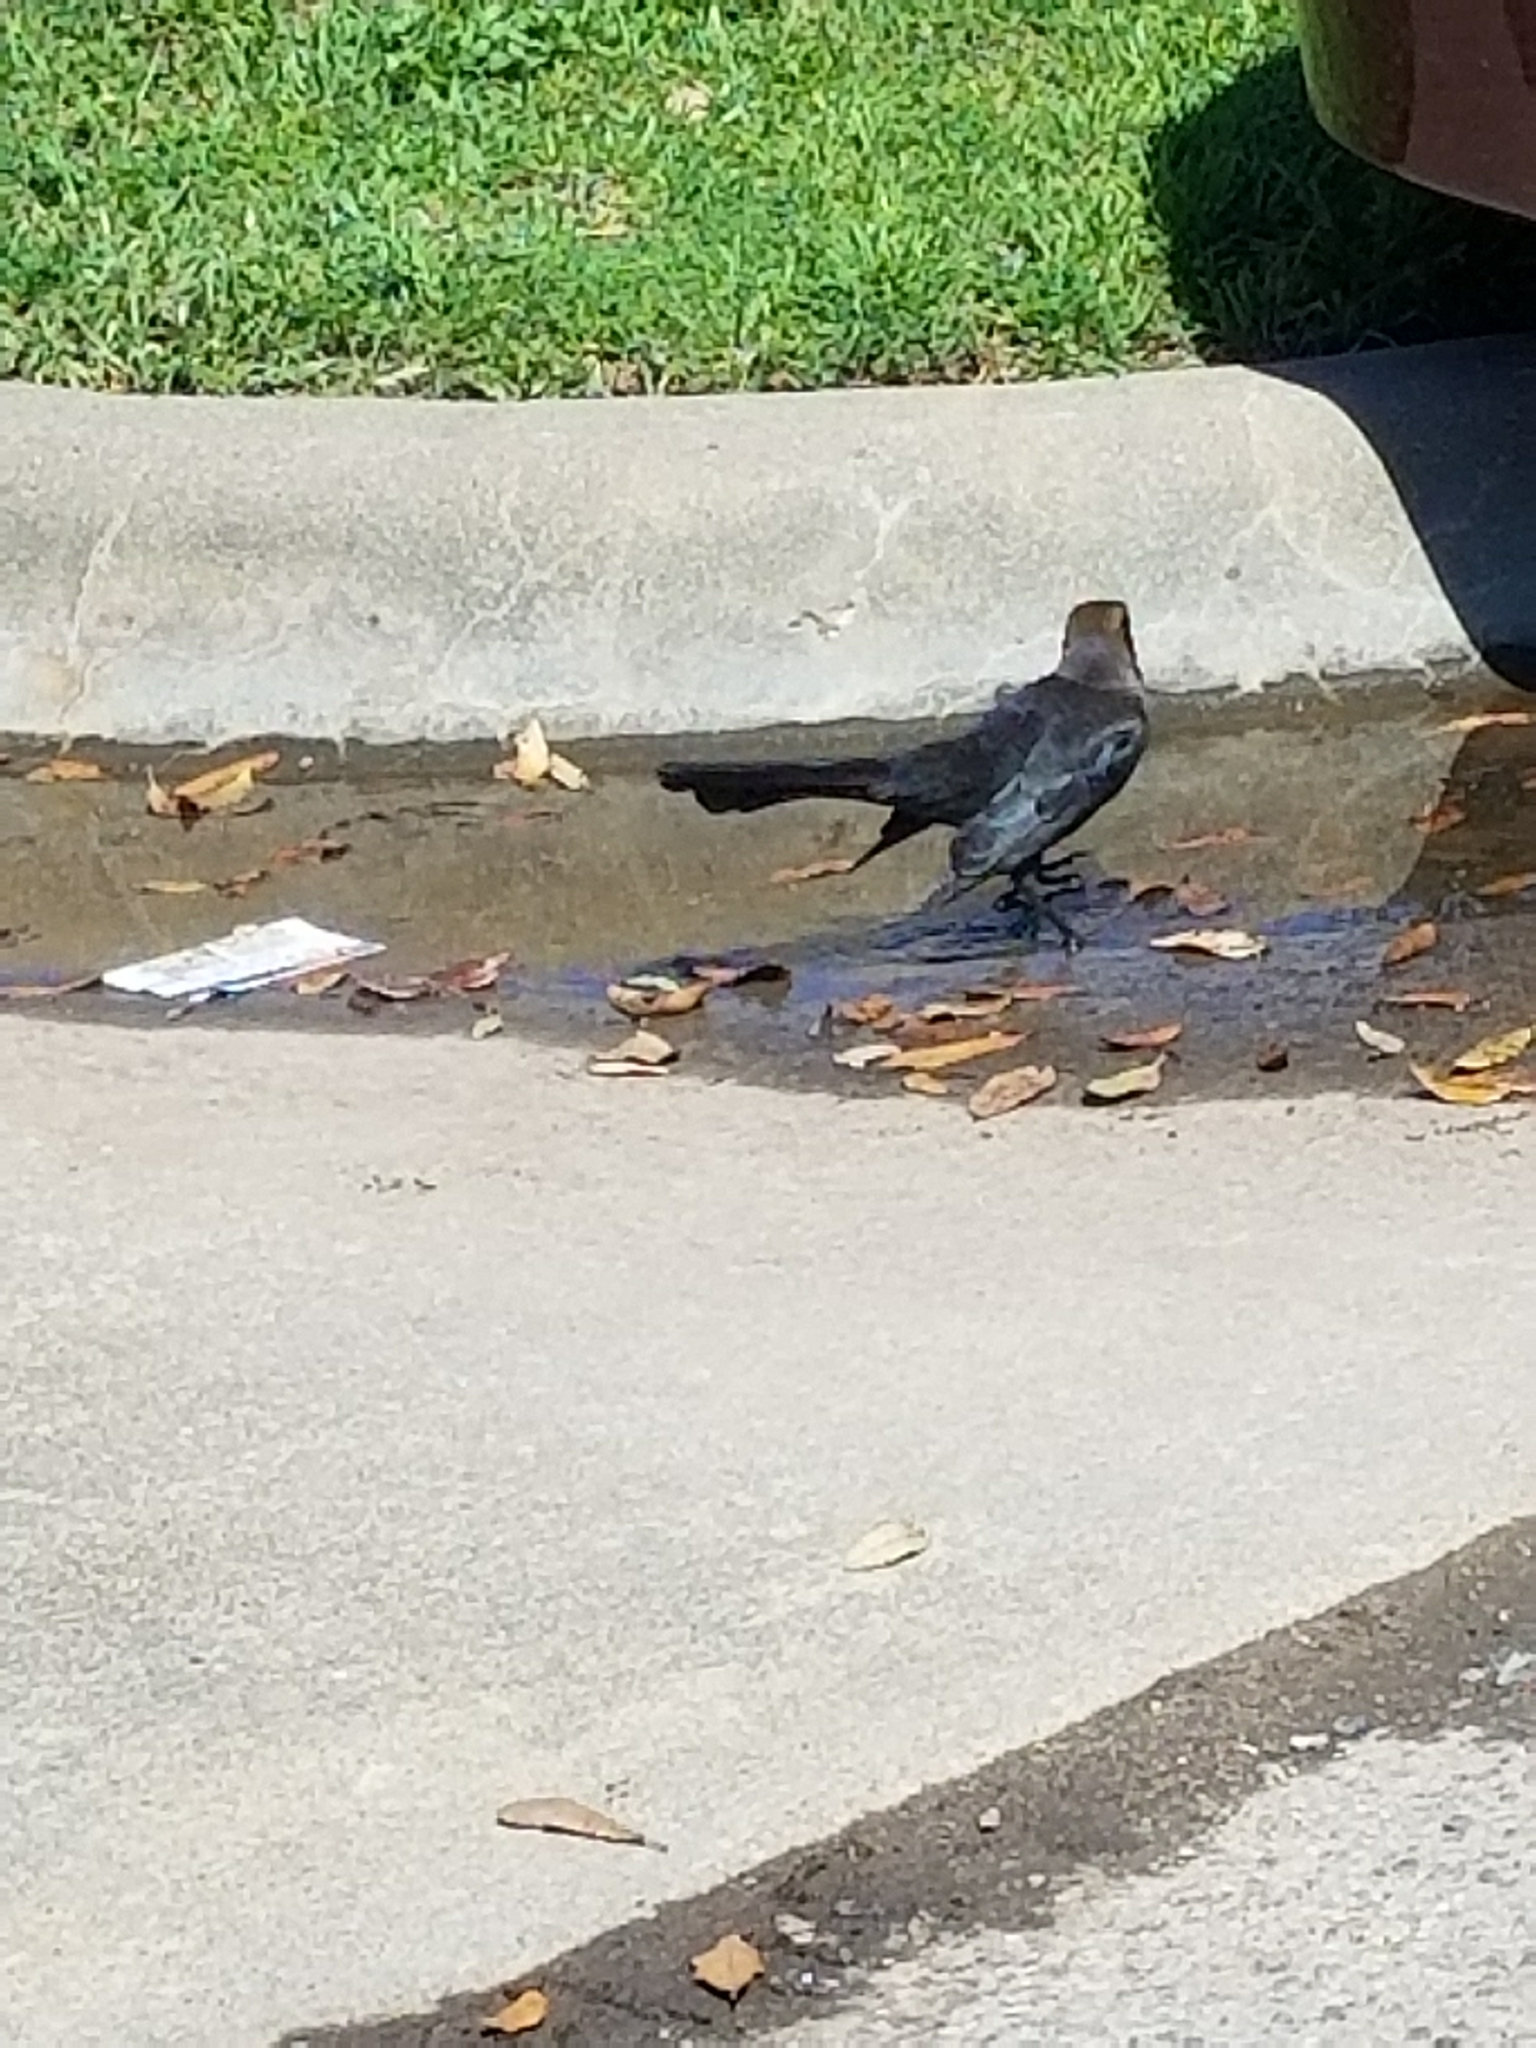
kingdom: Animalia
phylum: Chordata
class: Aves
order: Passeriformes
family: Icteridae
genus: Quiscalus
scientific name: Quiscalus mexicanus
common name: Great-tailed grackle
